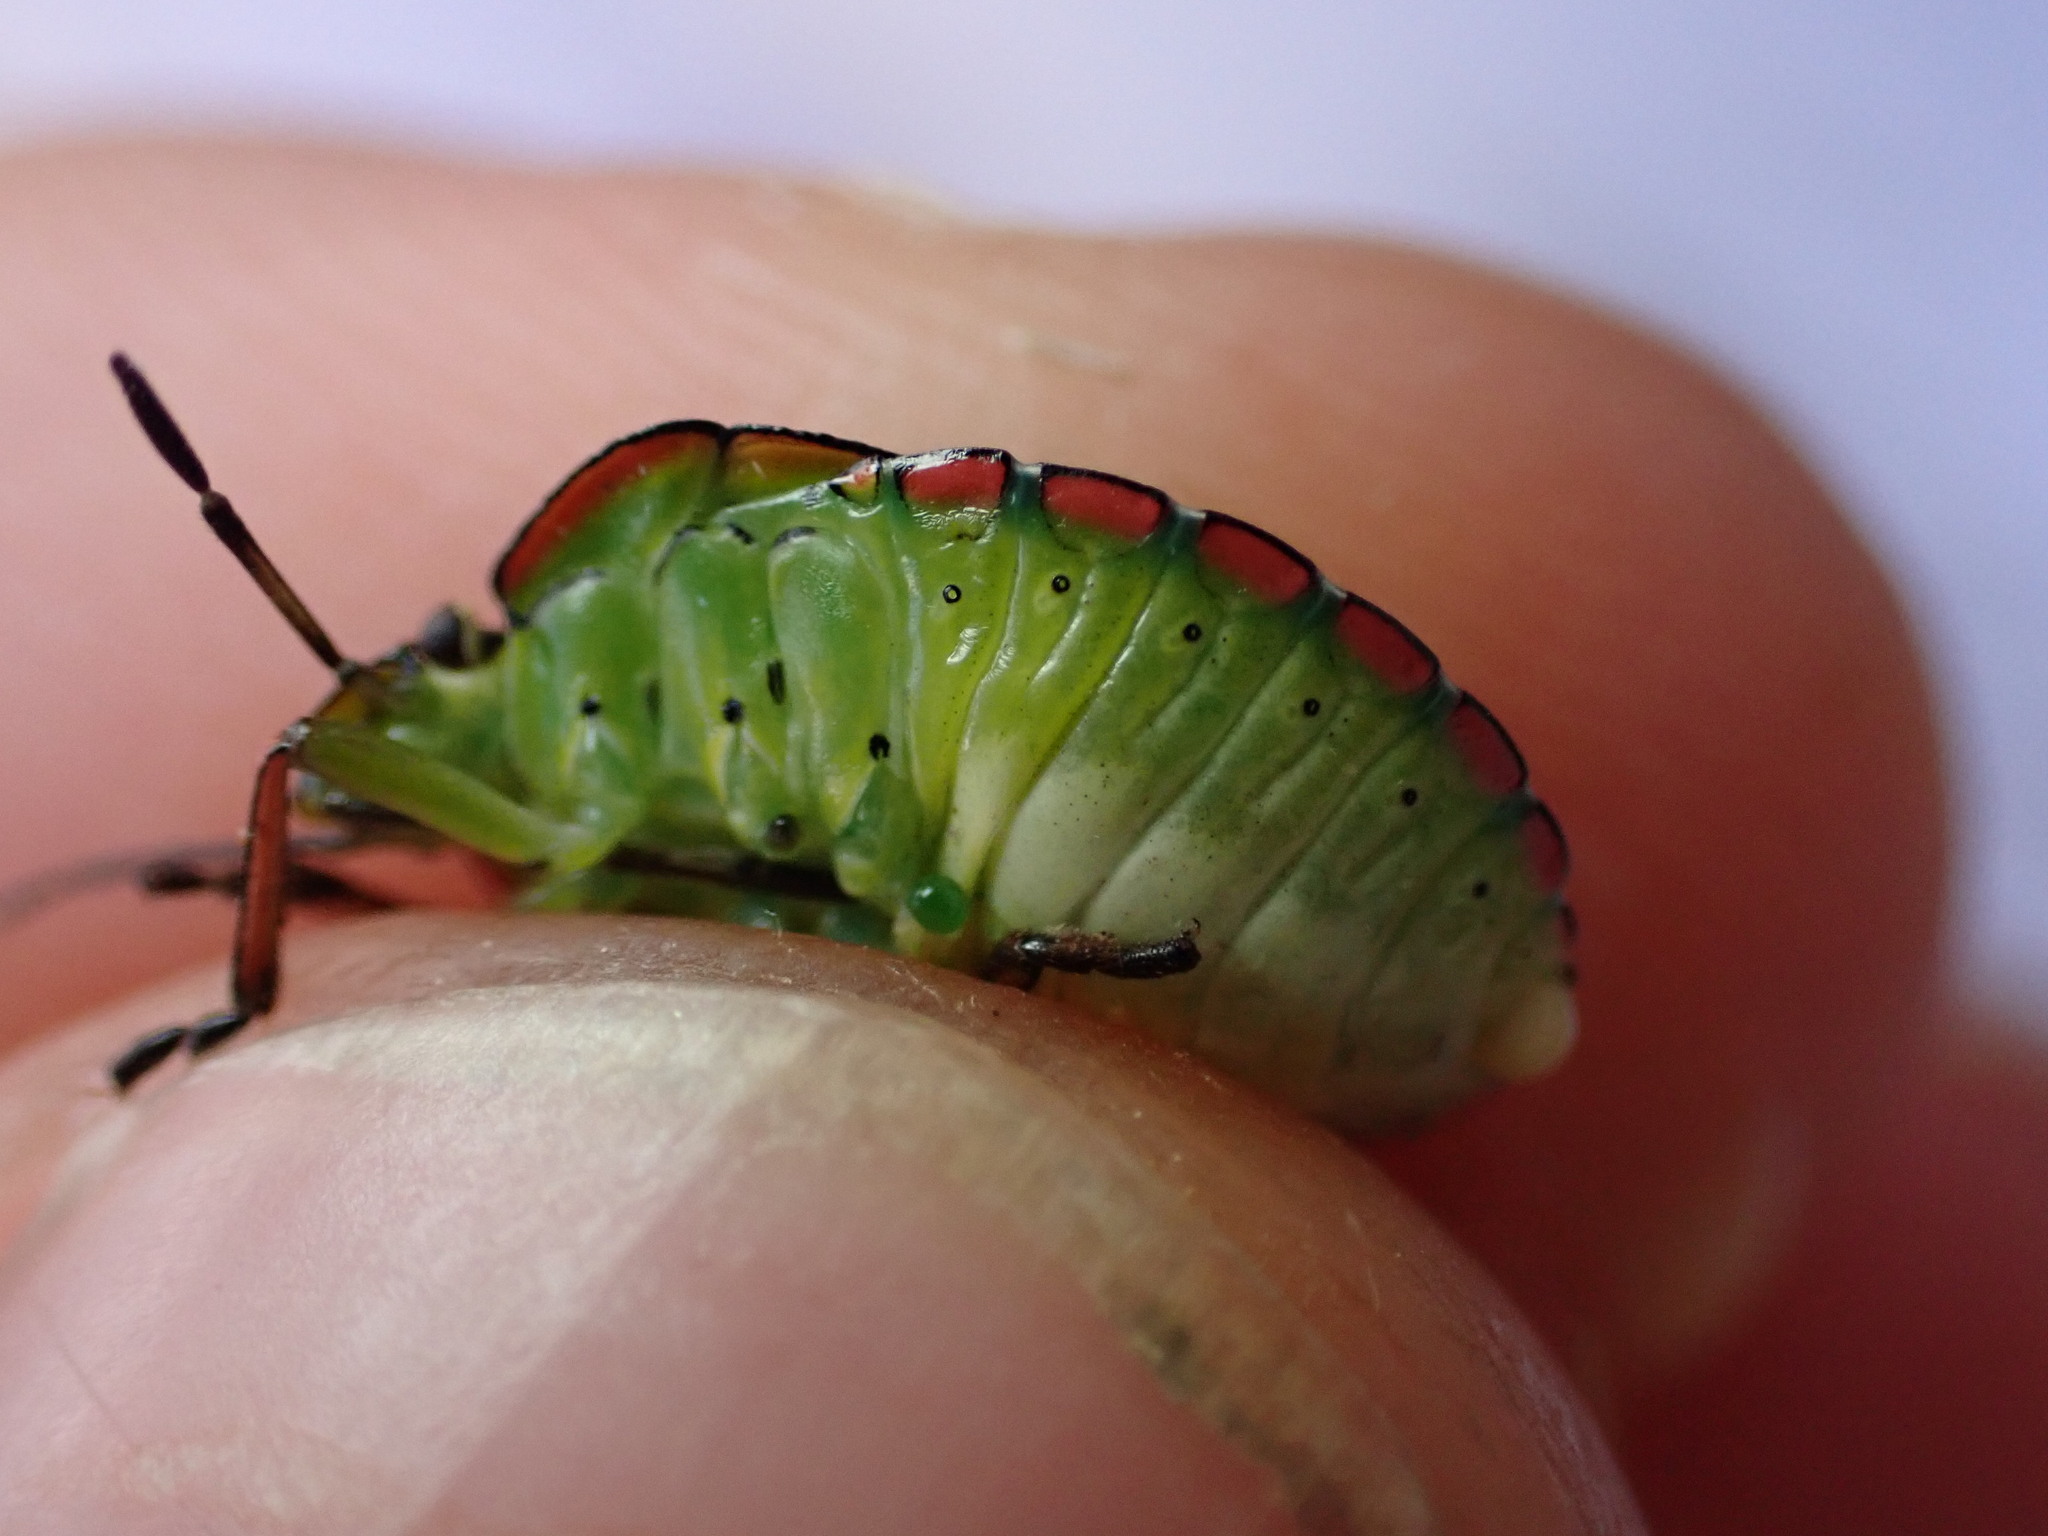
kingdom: Animalia
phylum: Arthropoda
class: Insecta
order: Hemiptera
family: Pentatomidae
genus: Nezara
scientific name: Nezara viridula
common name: Southern green stink bug
